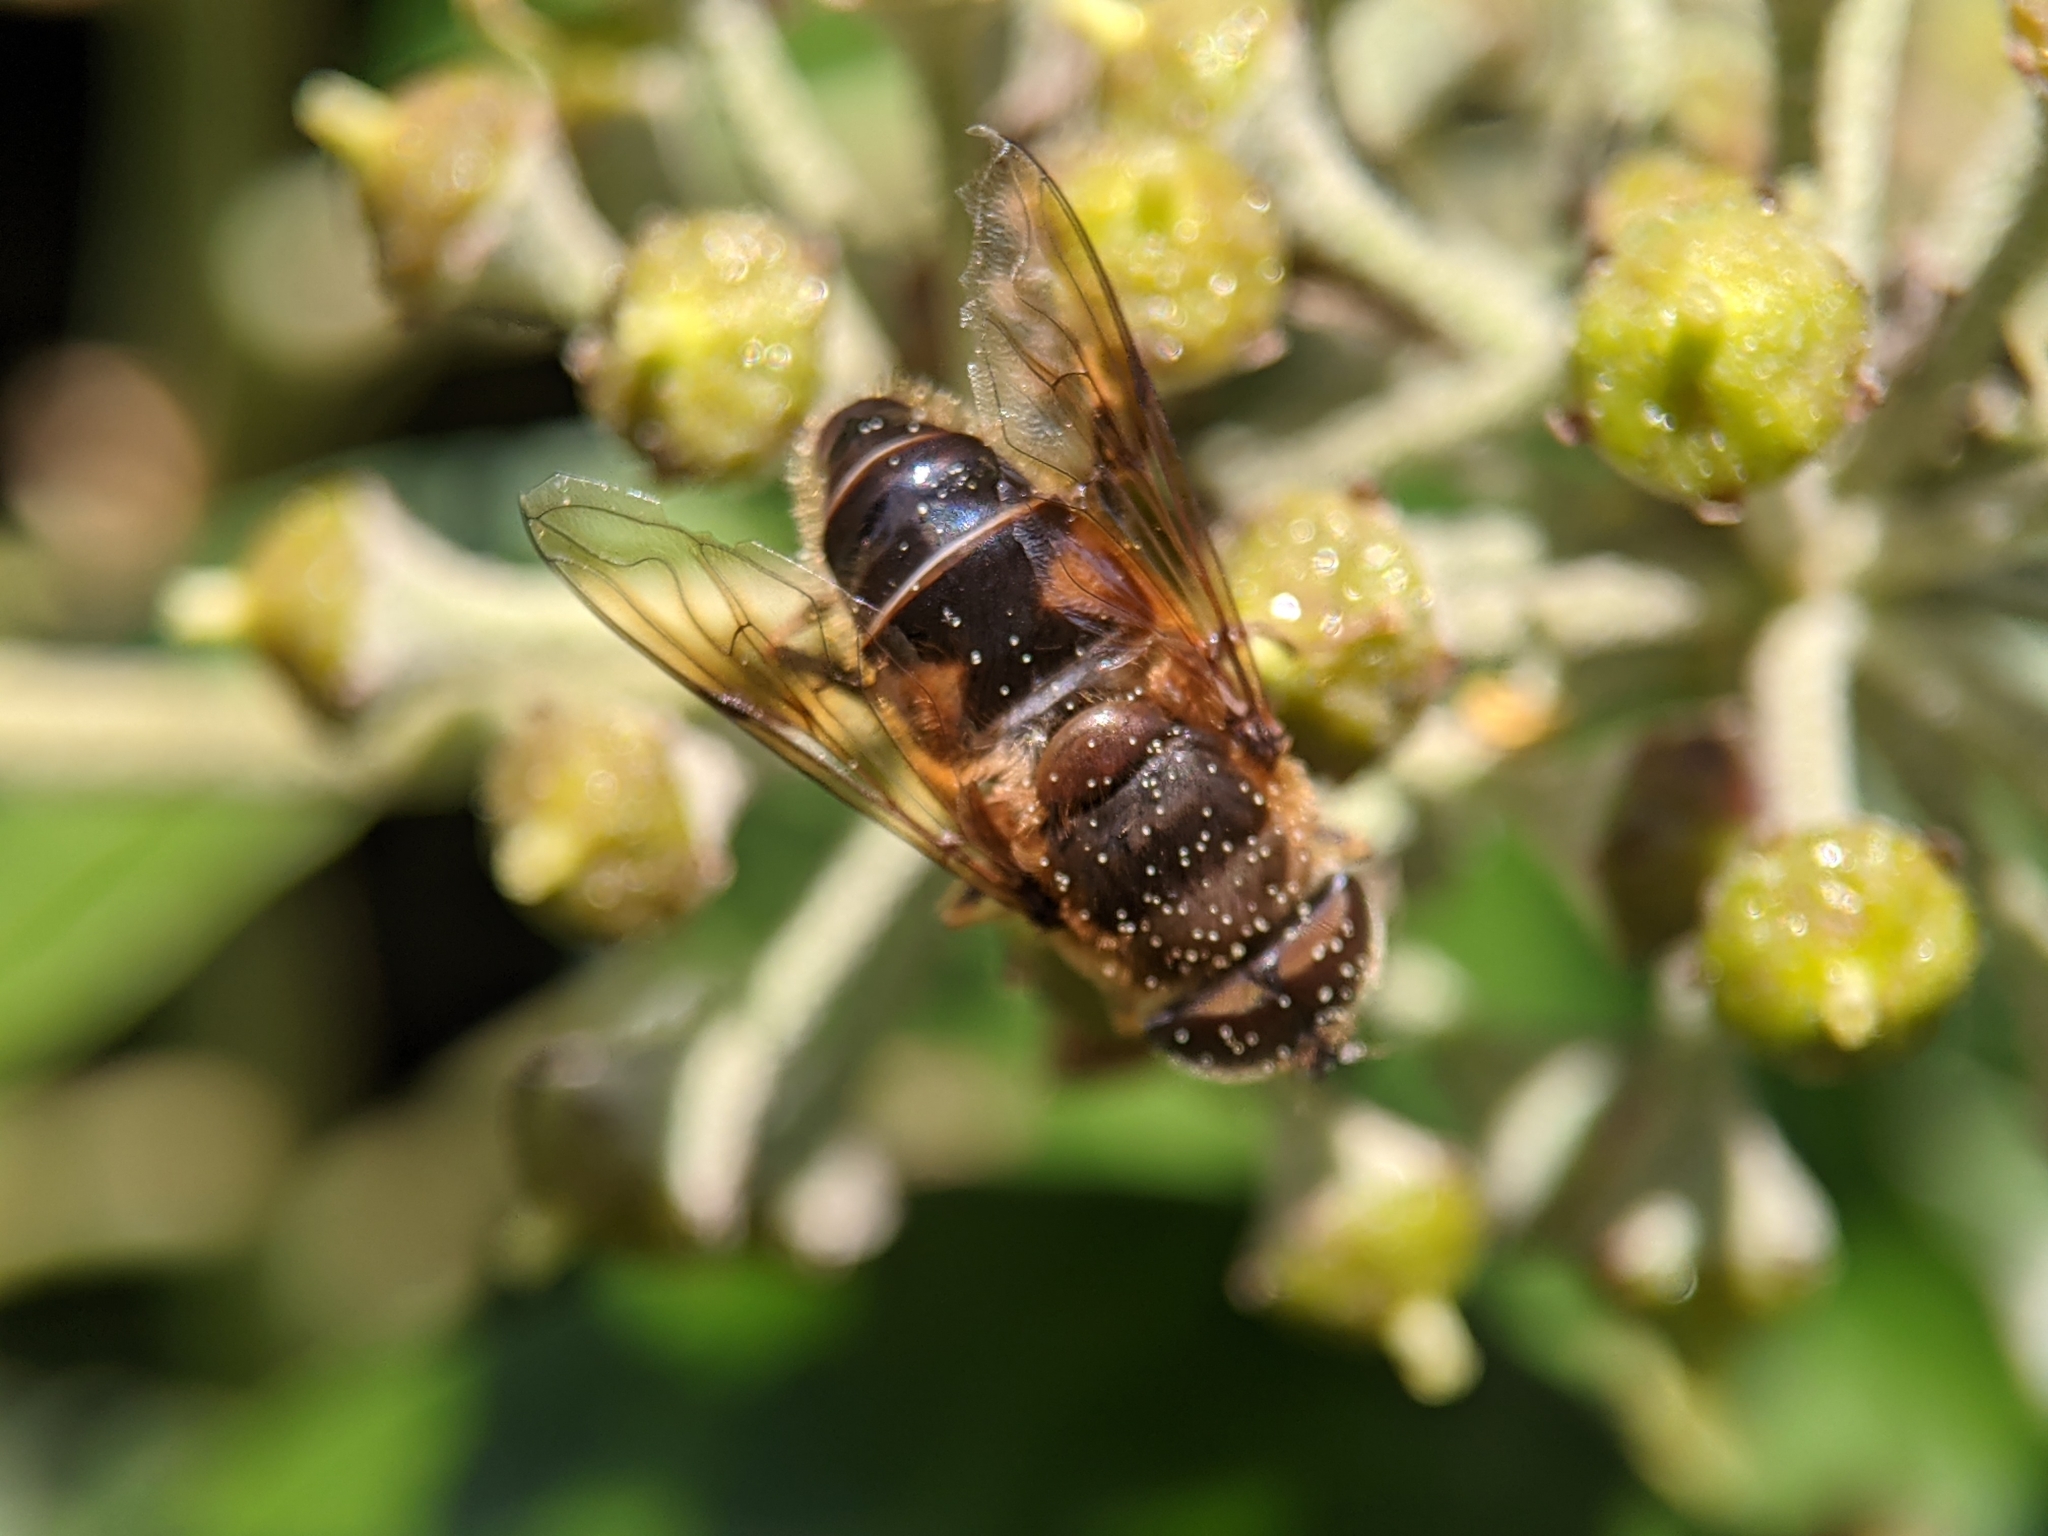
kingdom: Animalia
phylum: Arthropoda
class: Insecta
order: Diptera
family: Syrphidae
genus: Eristalis
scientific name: Eristalis pertinax
